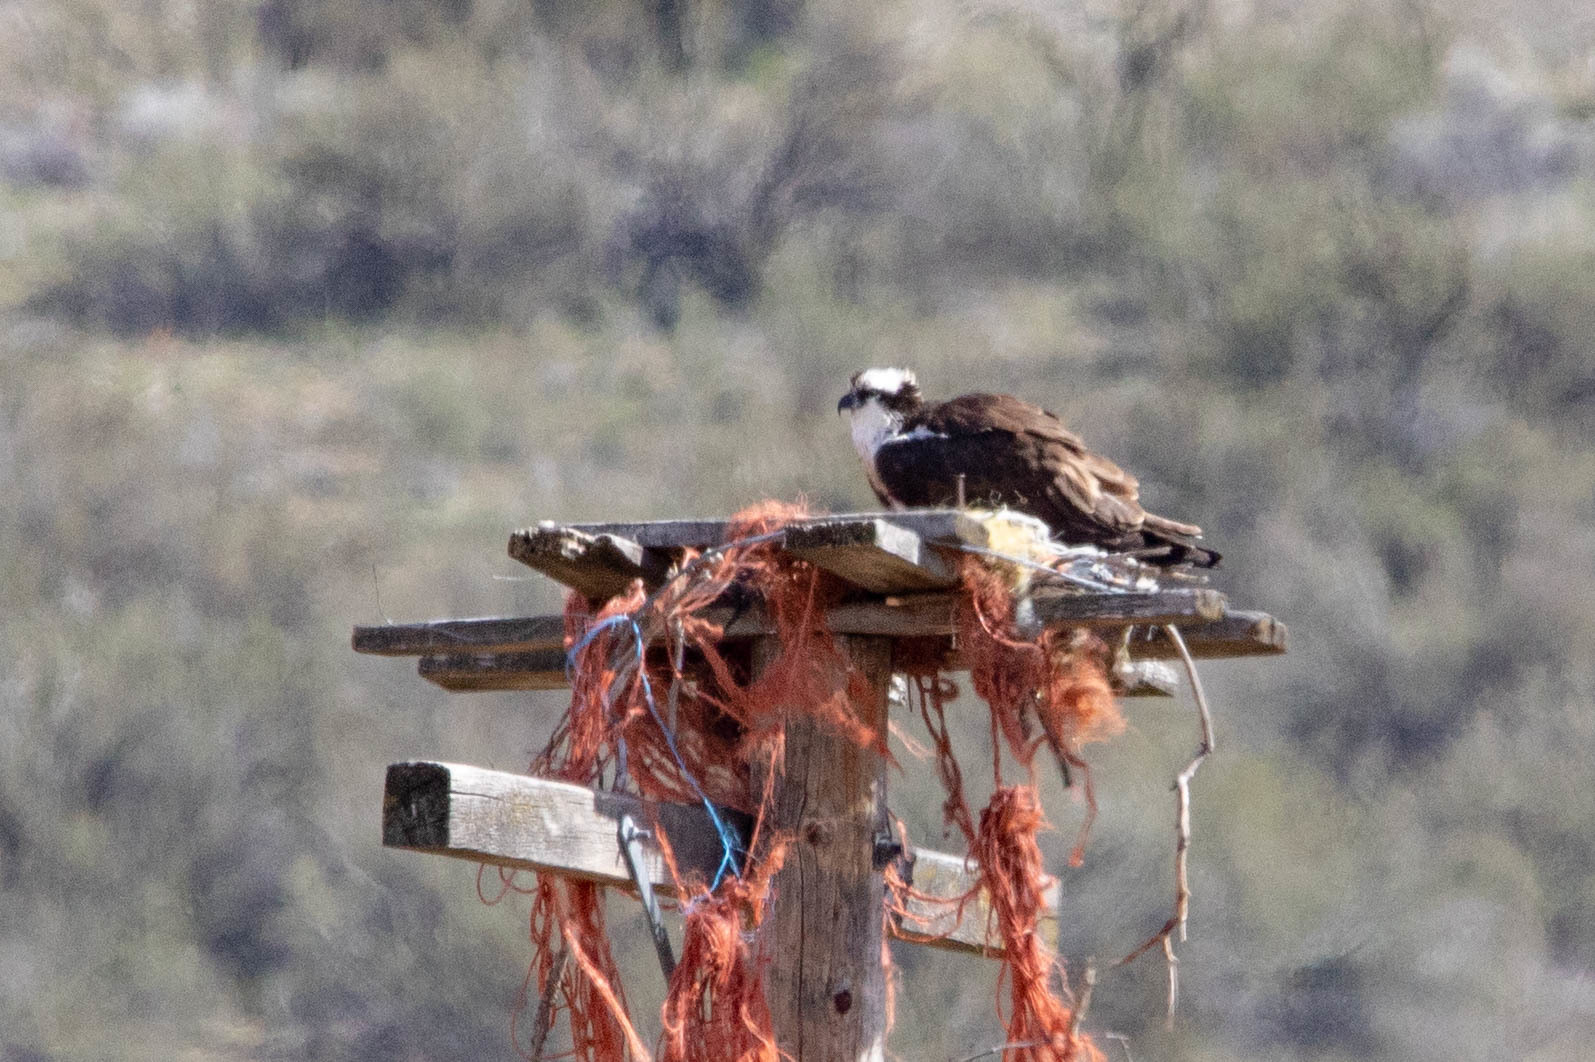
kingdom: Animalia
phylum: Chordata
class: Aves
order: Accipitriformes
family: Pandionidae
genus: Pandion
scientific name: Pandion haliaetus
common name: Osprey
